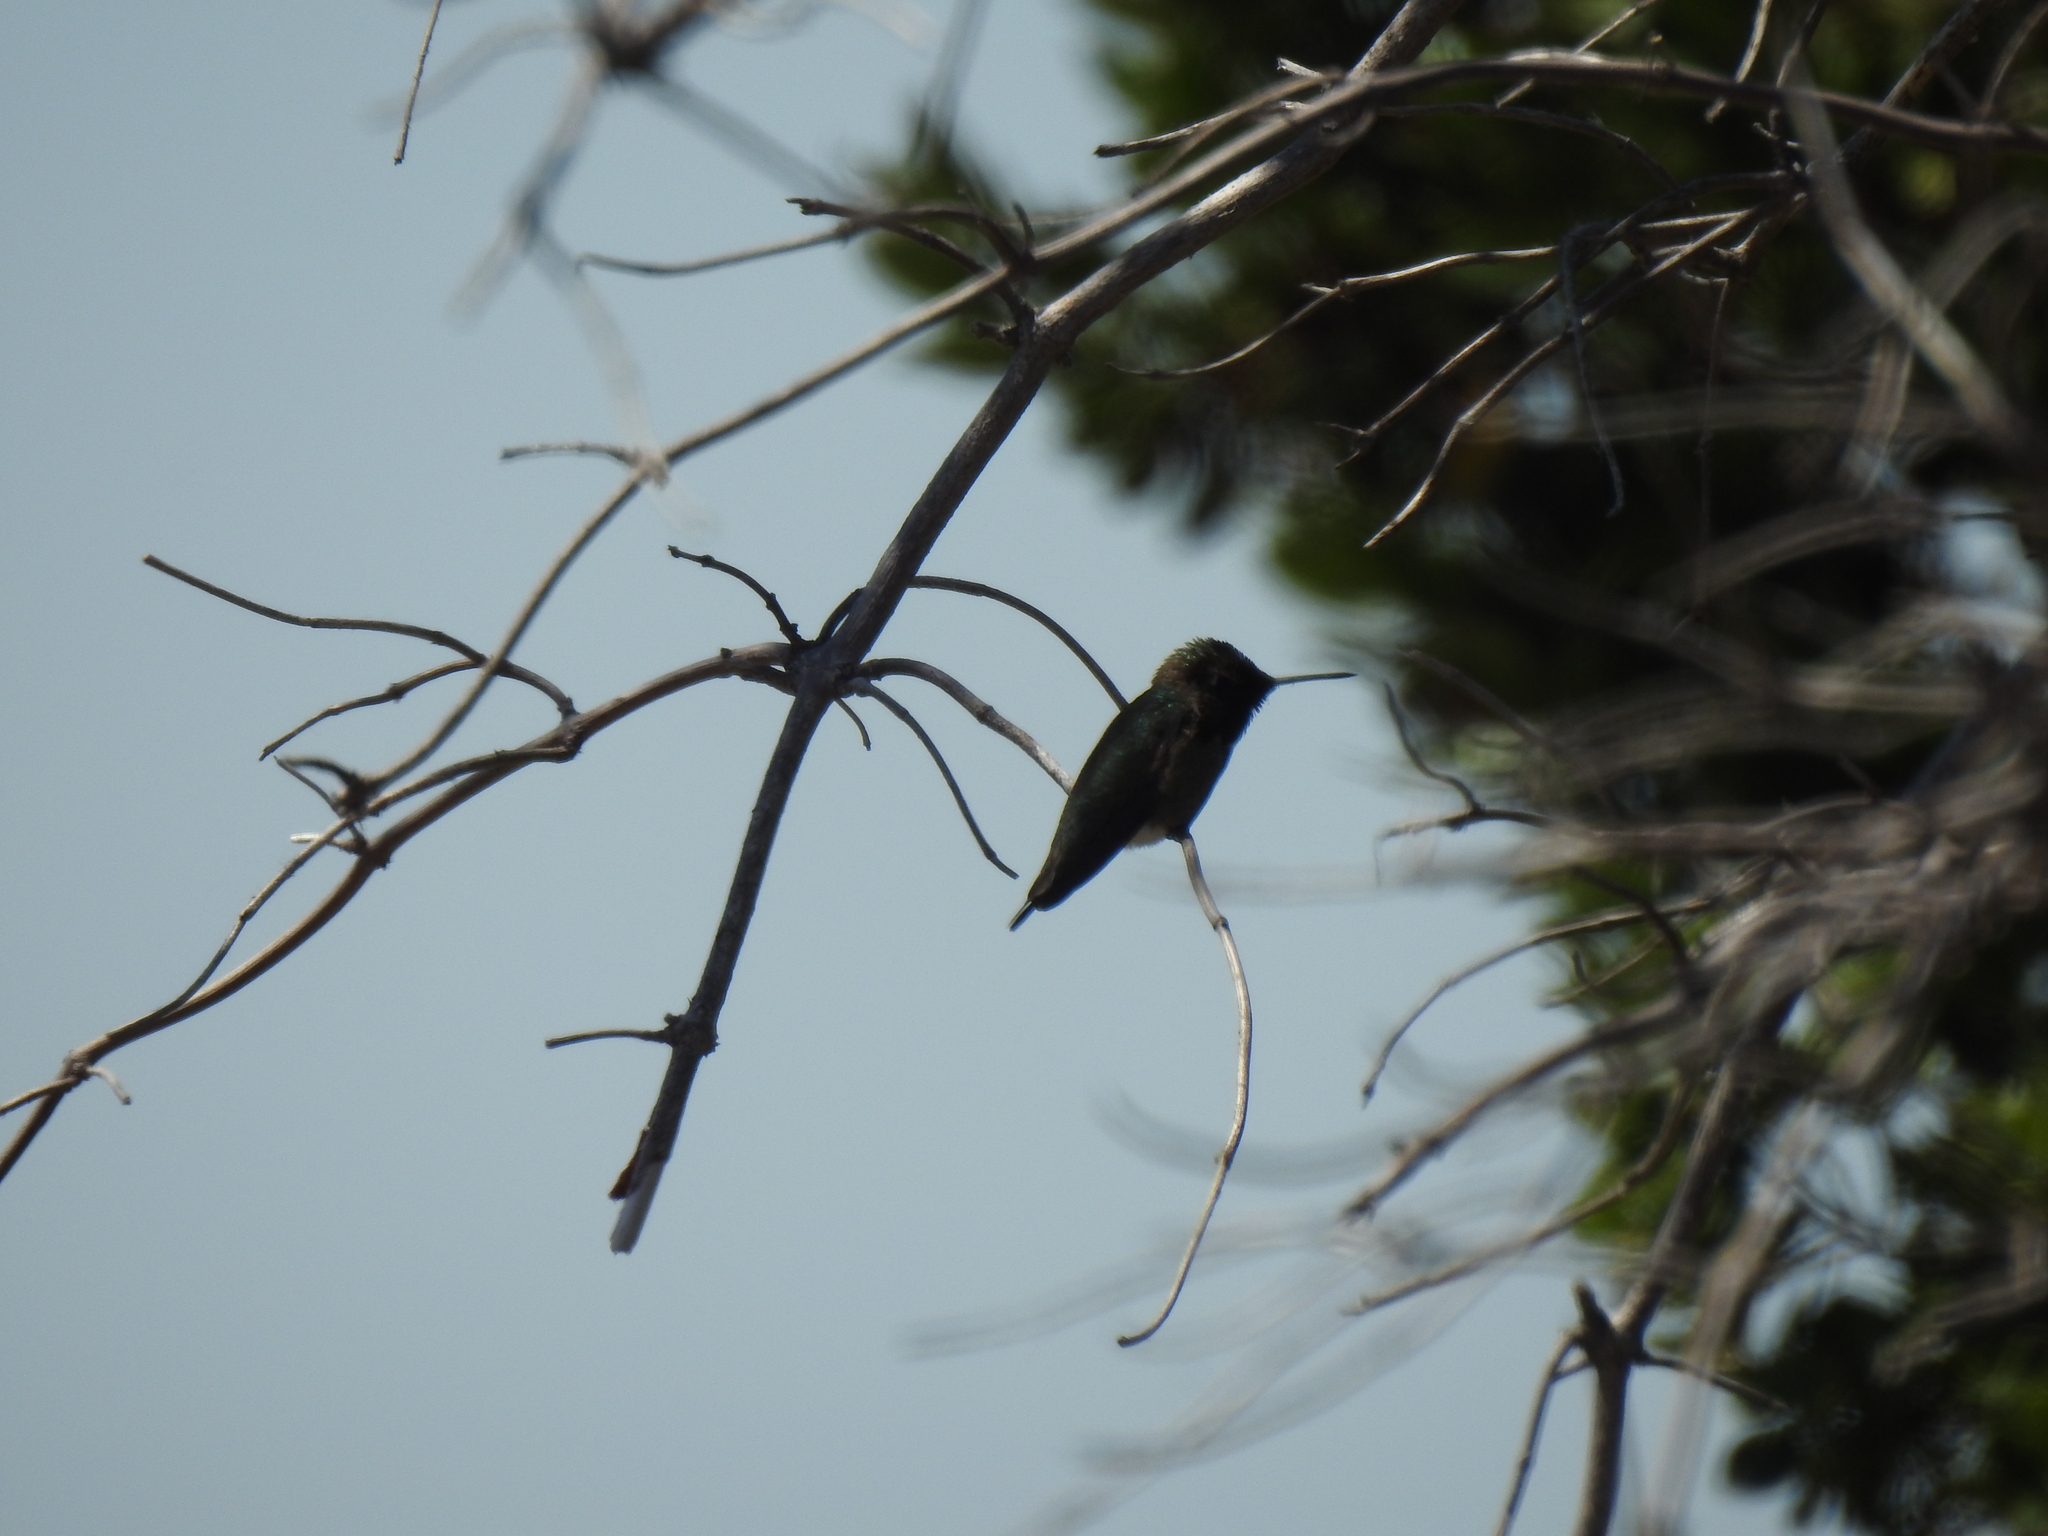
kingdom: Animalia
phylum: Chordata
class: Aves
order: Apodiformes
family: Trochilidae
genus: Calypte
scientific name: Calypte anna
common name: Anna's hummingbird
